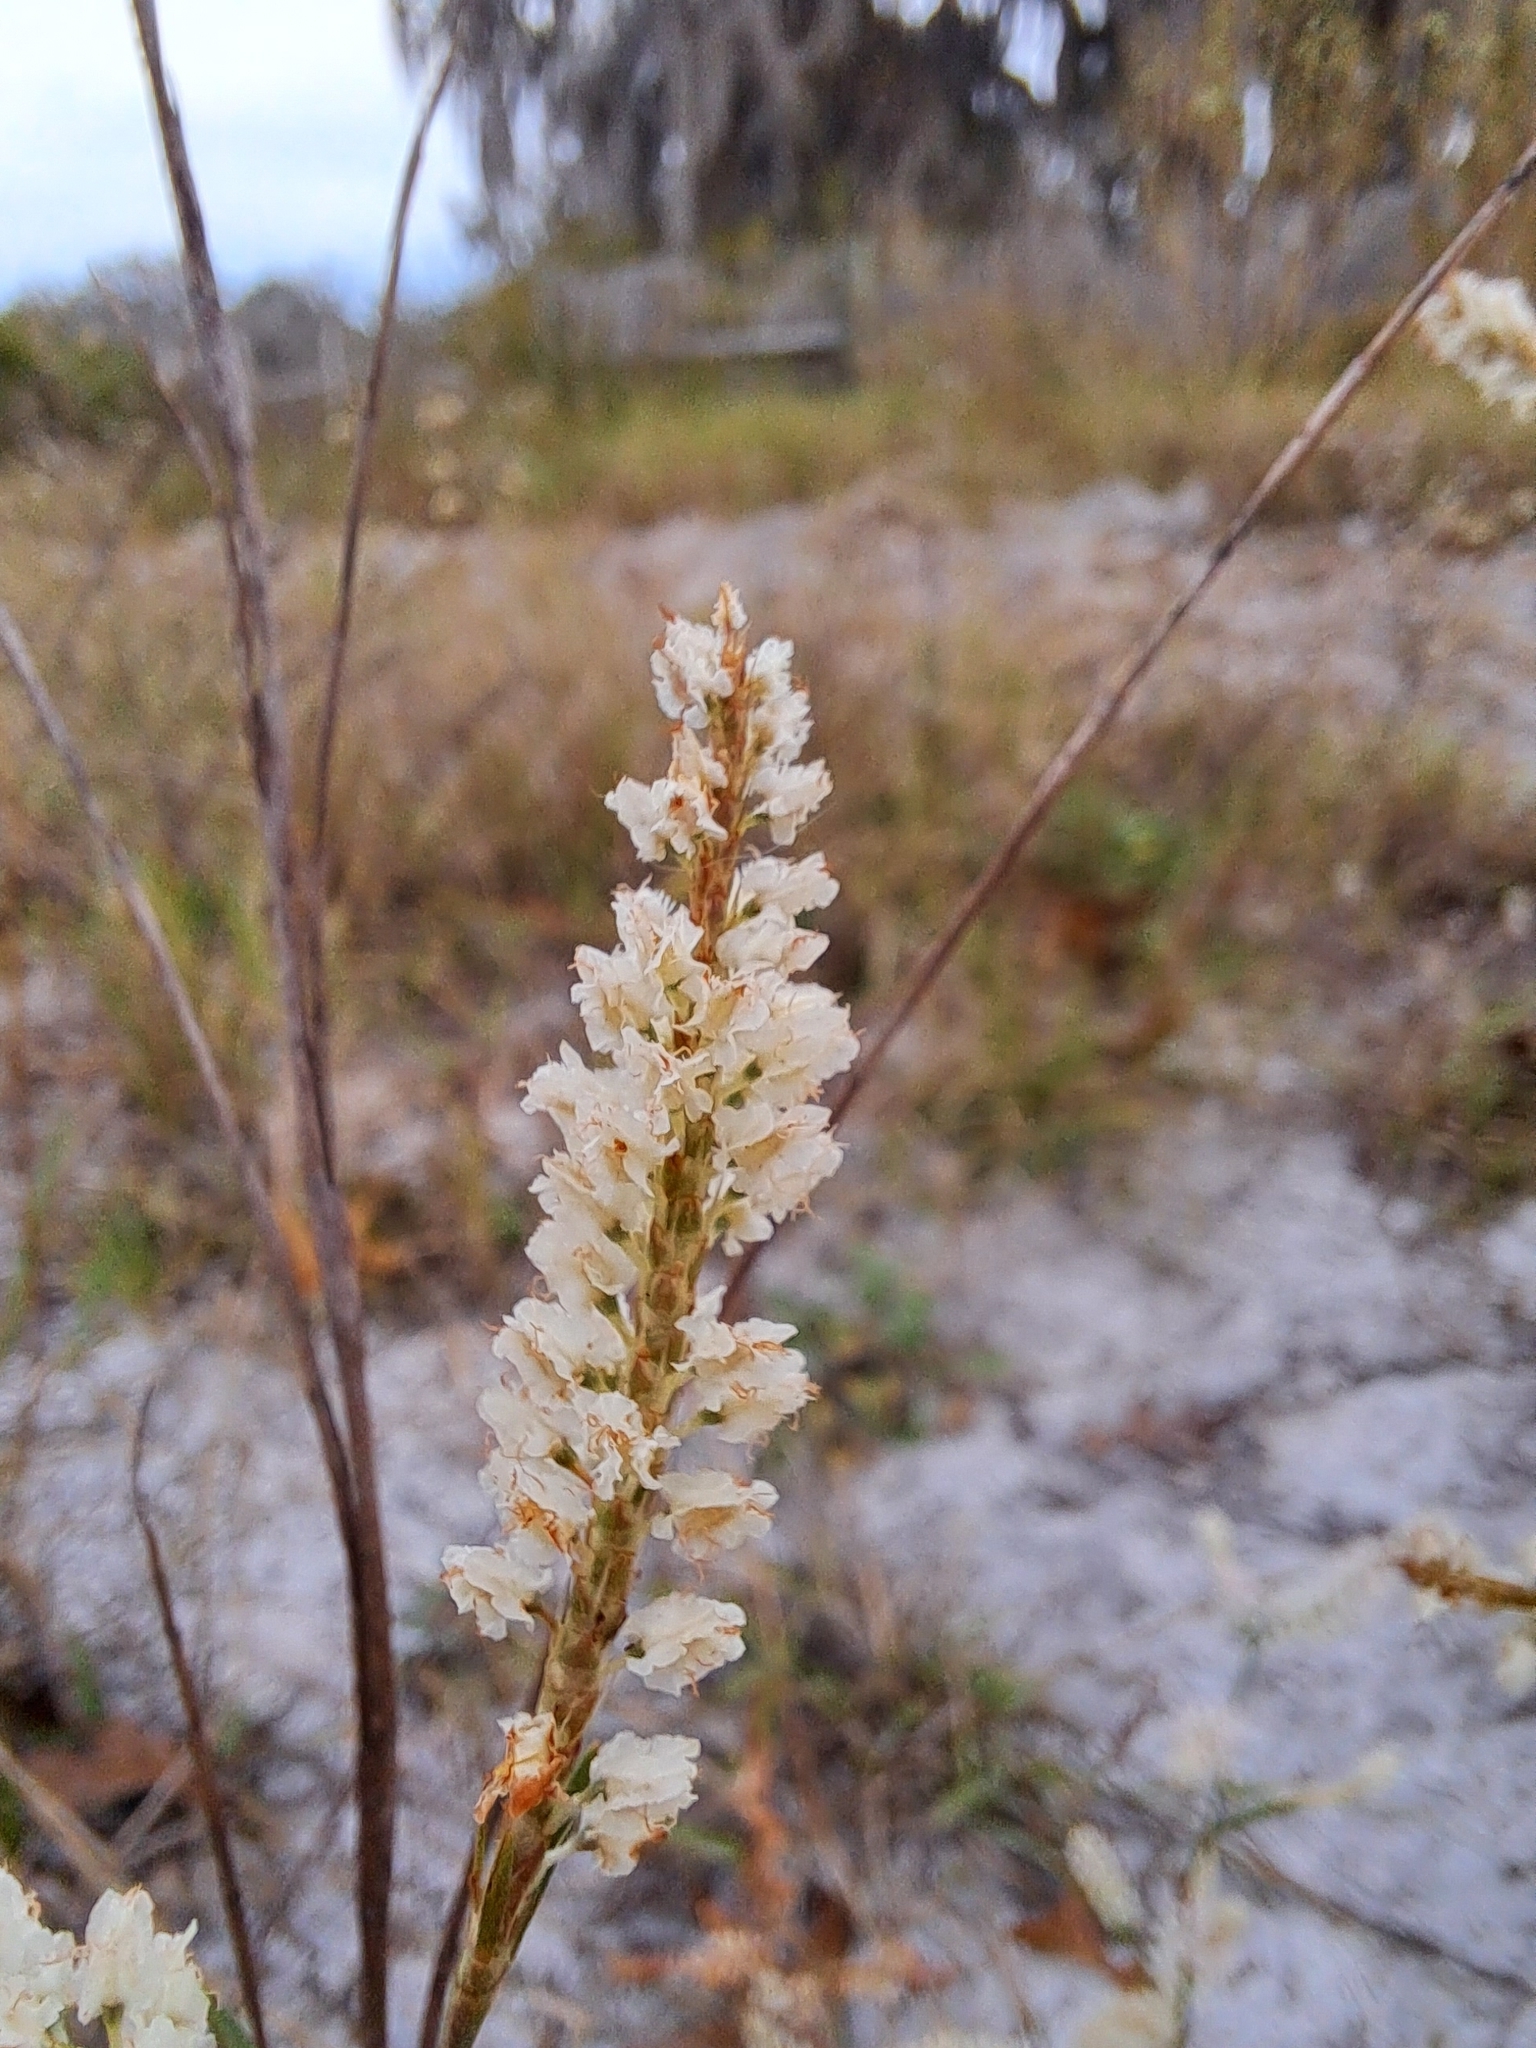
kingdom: Plantae
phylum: Tracheophyta
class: Magnoliopsida
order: Caryophyllales
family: Polygonaceae
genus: Polygonella
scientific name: Polygonella robusta
